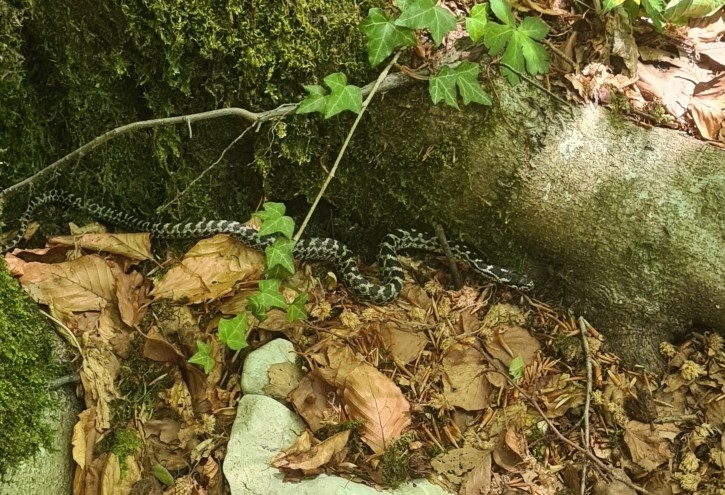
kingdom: Animalia
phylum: Chordata
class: Squamata
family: Colubridae
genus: Elaphe
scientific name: Elaphe quatuorlineata
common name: Four-lined snake
